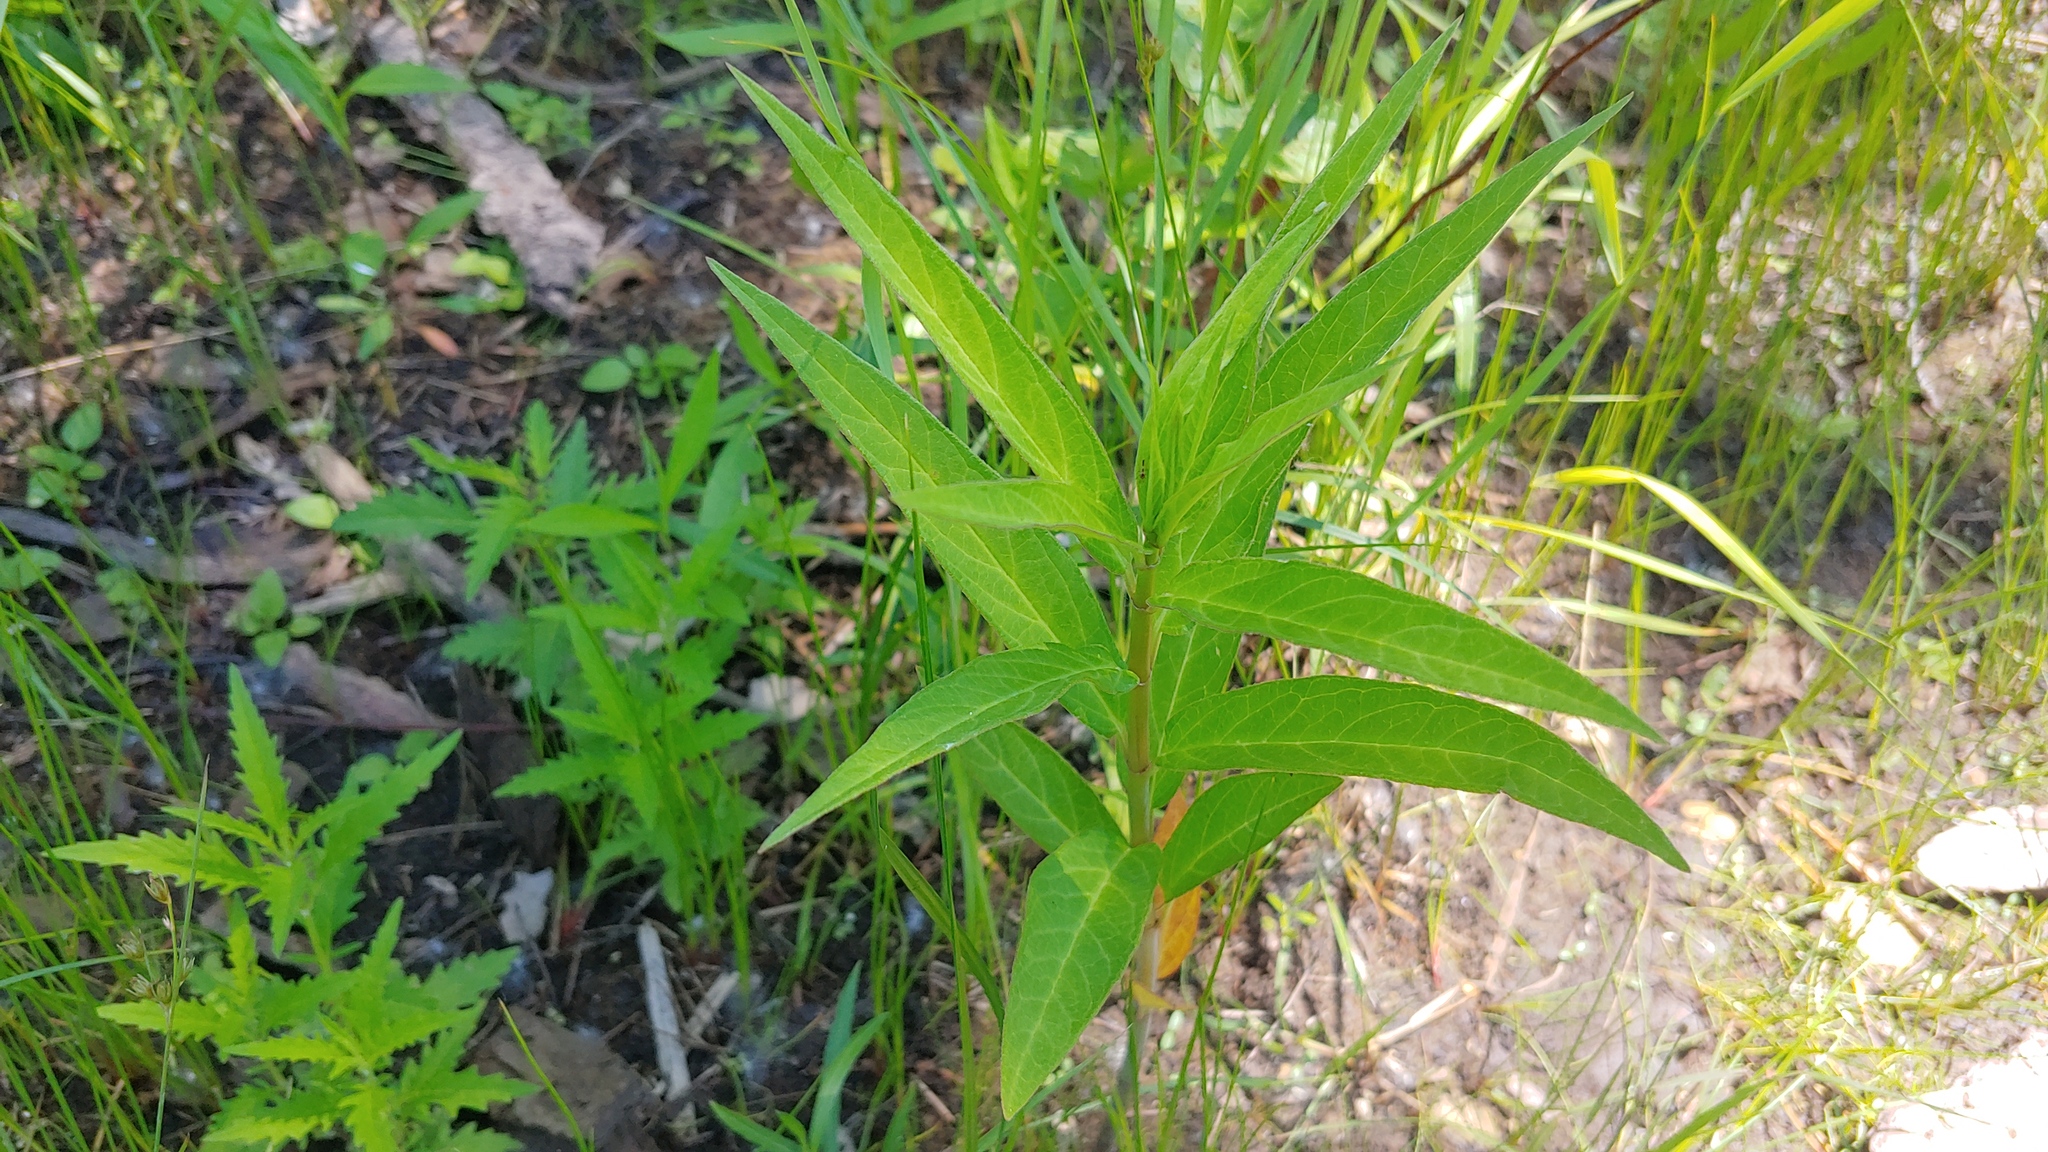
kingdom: Plantae
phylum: Tracheophyta
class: Magnoliopsida
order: Gentianales
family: Apocynaceae
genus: Asclepias
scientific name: Asclepias incarnata
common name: Swamp milkweed
